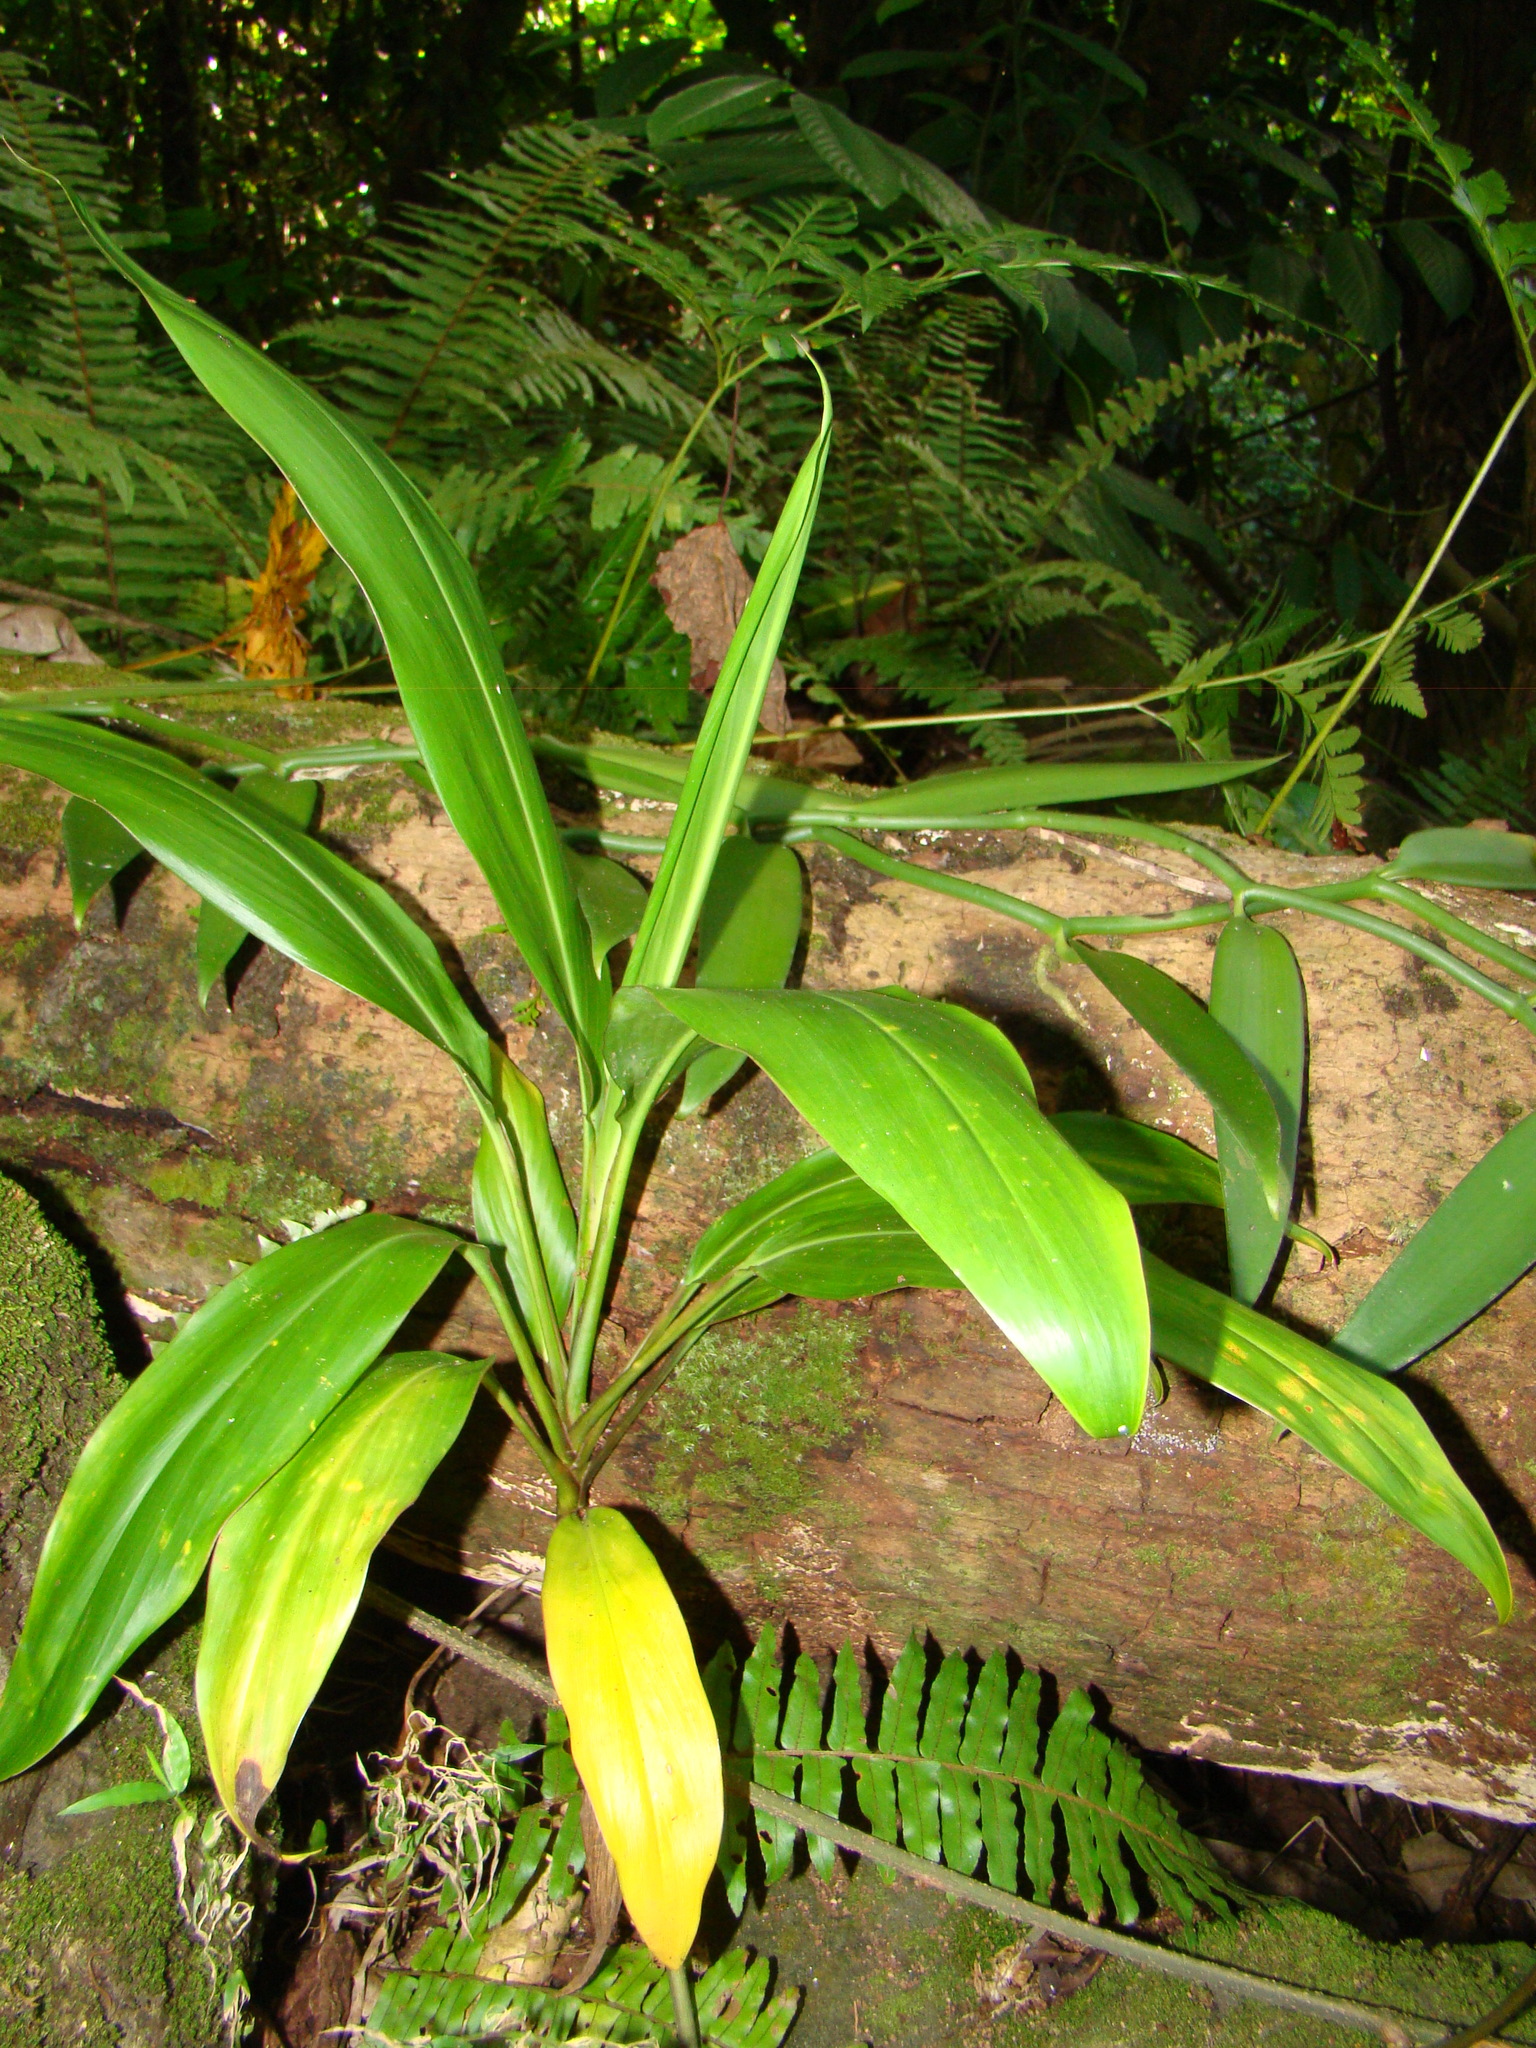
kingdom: Plantae
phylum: Tracheophyta
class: Liliopsida
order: Asparagales
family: Asparagaceae
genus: Cordyline
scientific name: Cordyline fruticosa
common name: Good-luck-plant
